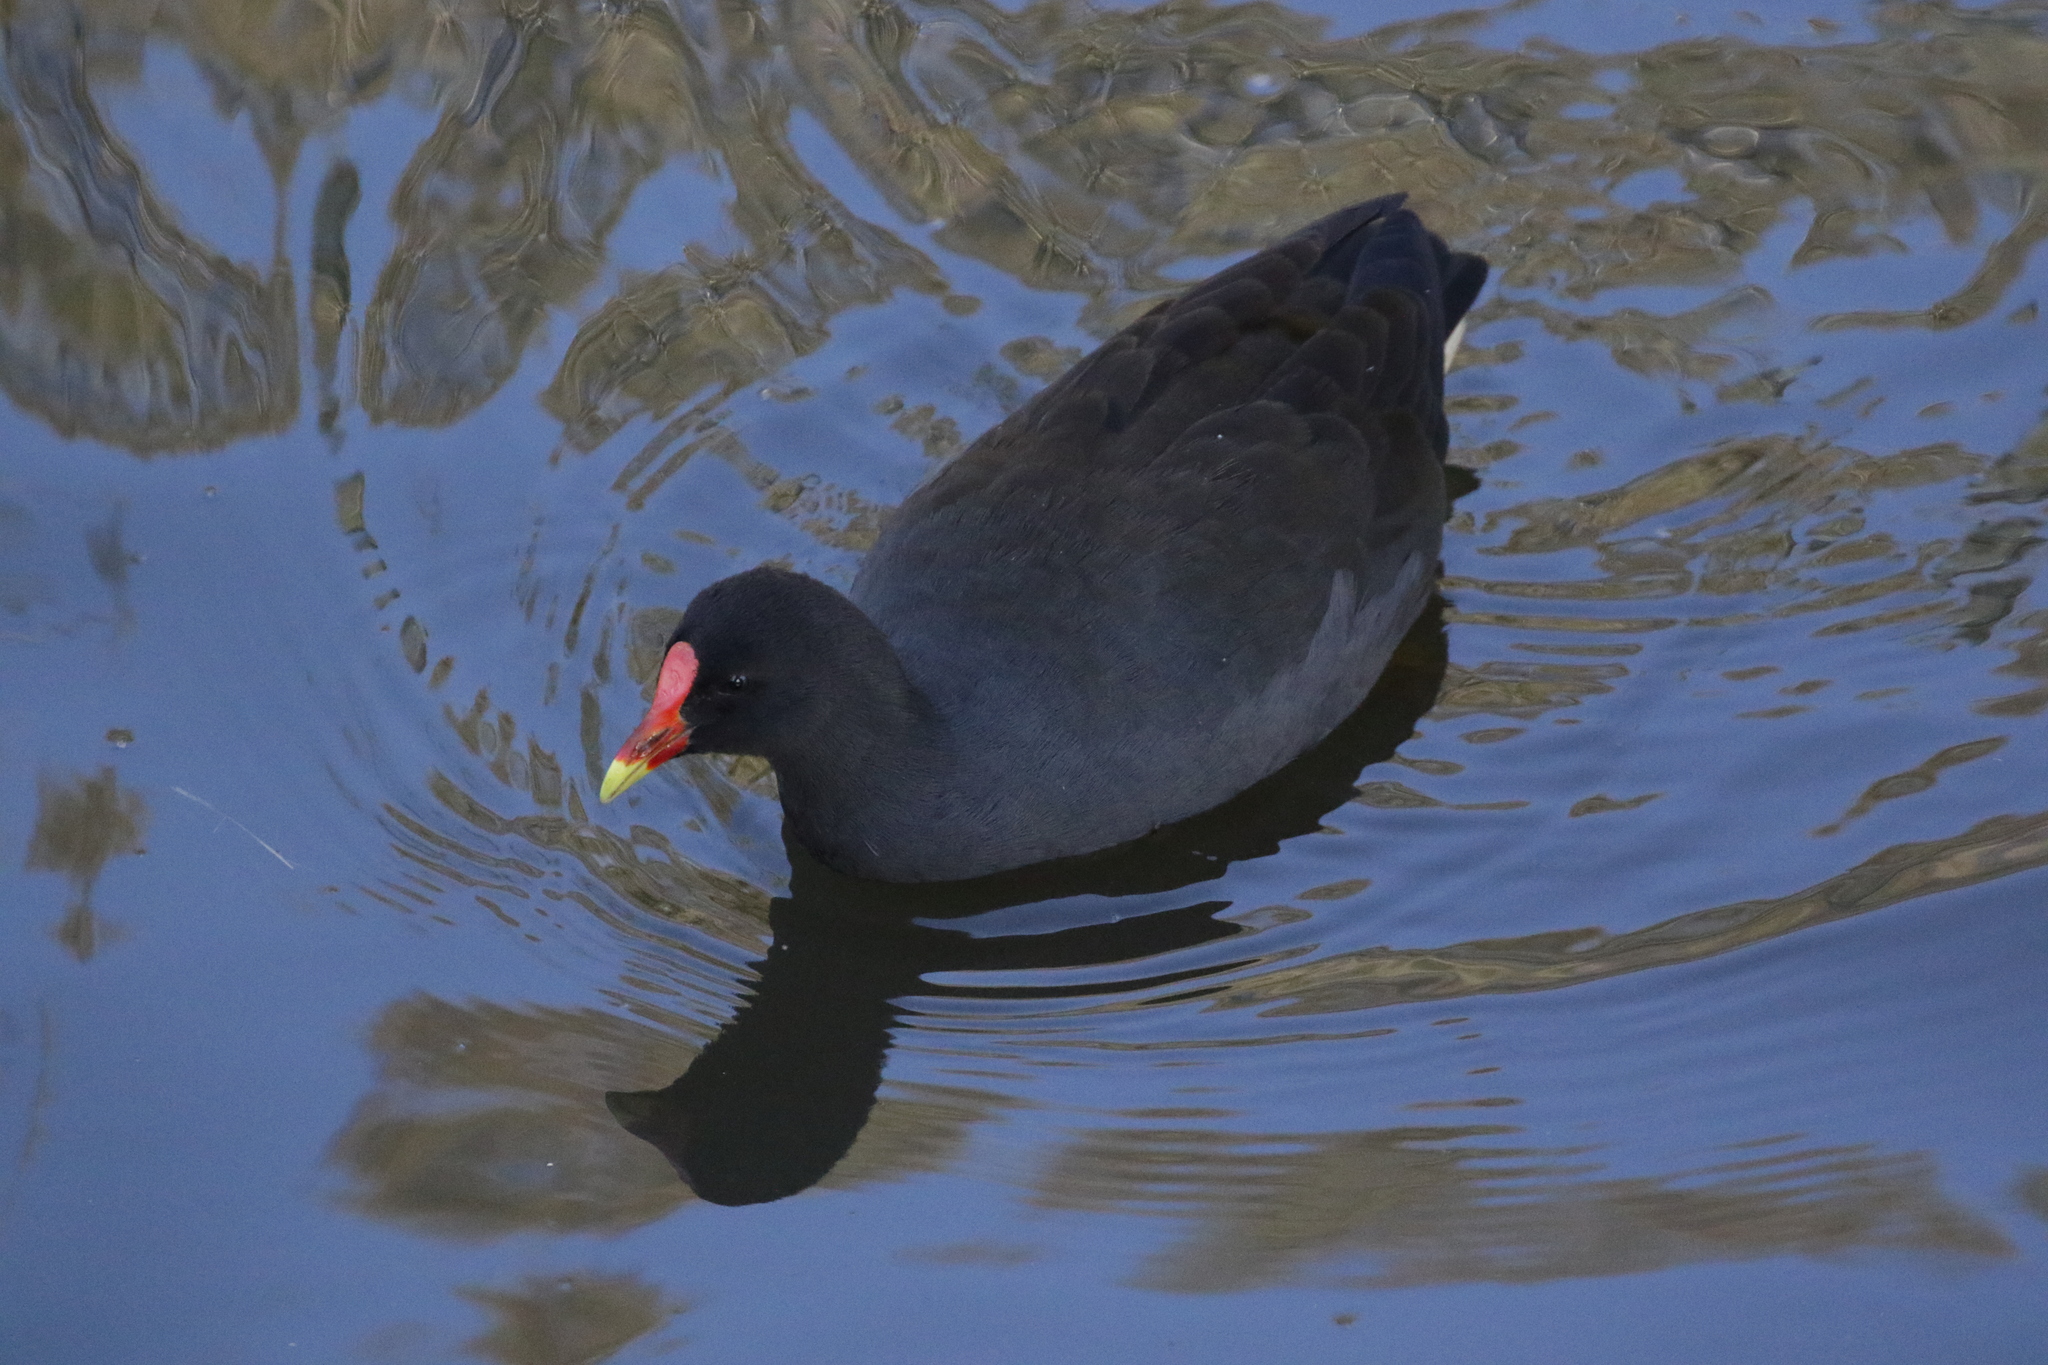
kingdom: Animalia
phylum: Chordata
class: Aves
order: Gruiformes
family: Rallidae
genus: Gallinula
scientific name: Gallinula tenebrosa
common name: Dusky moorhen
